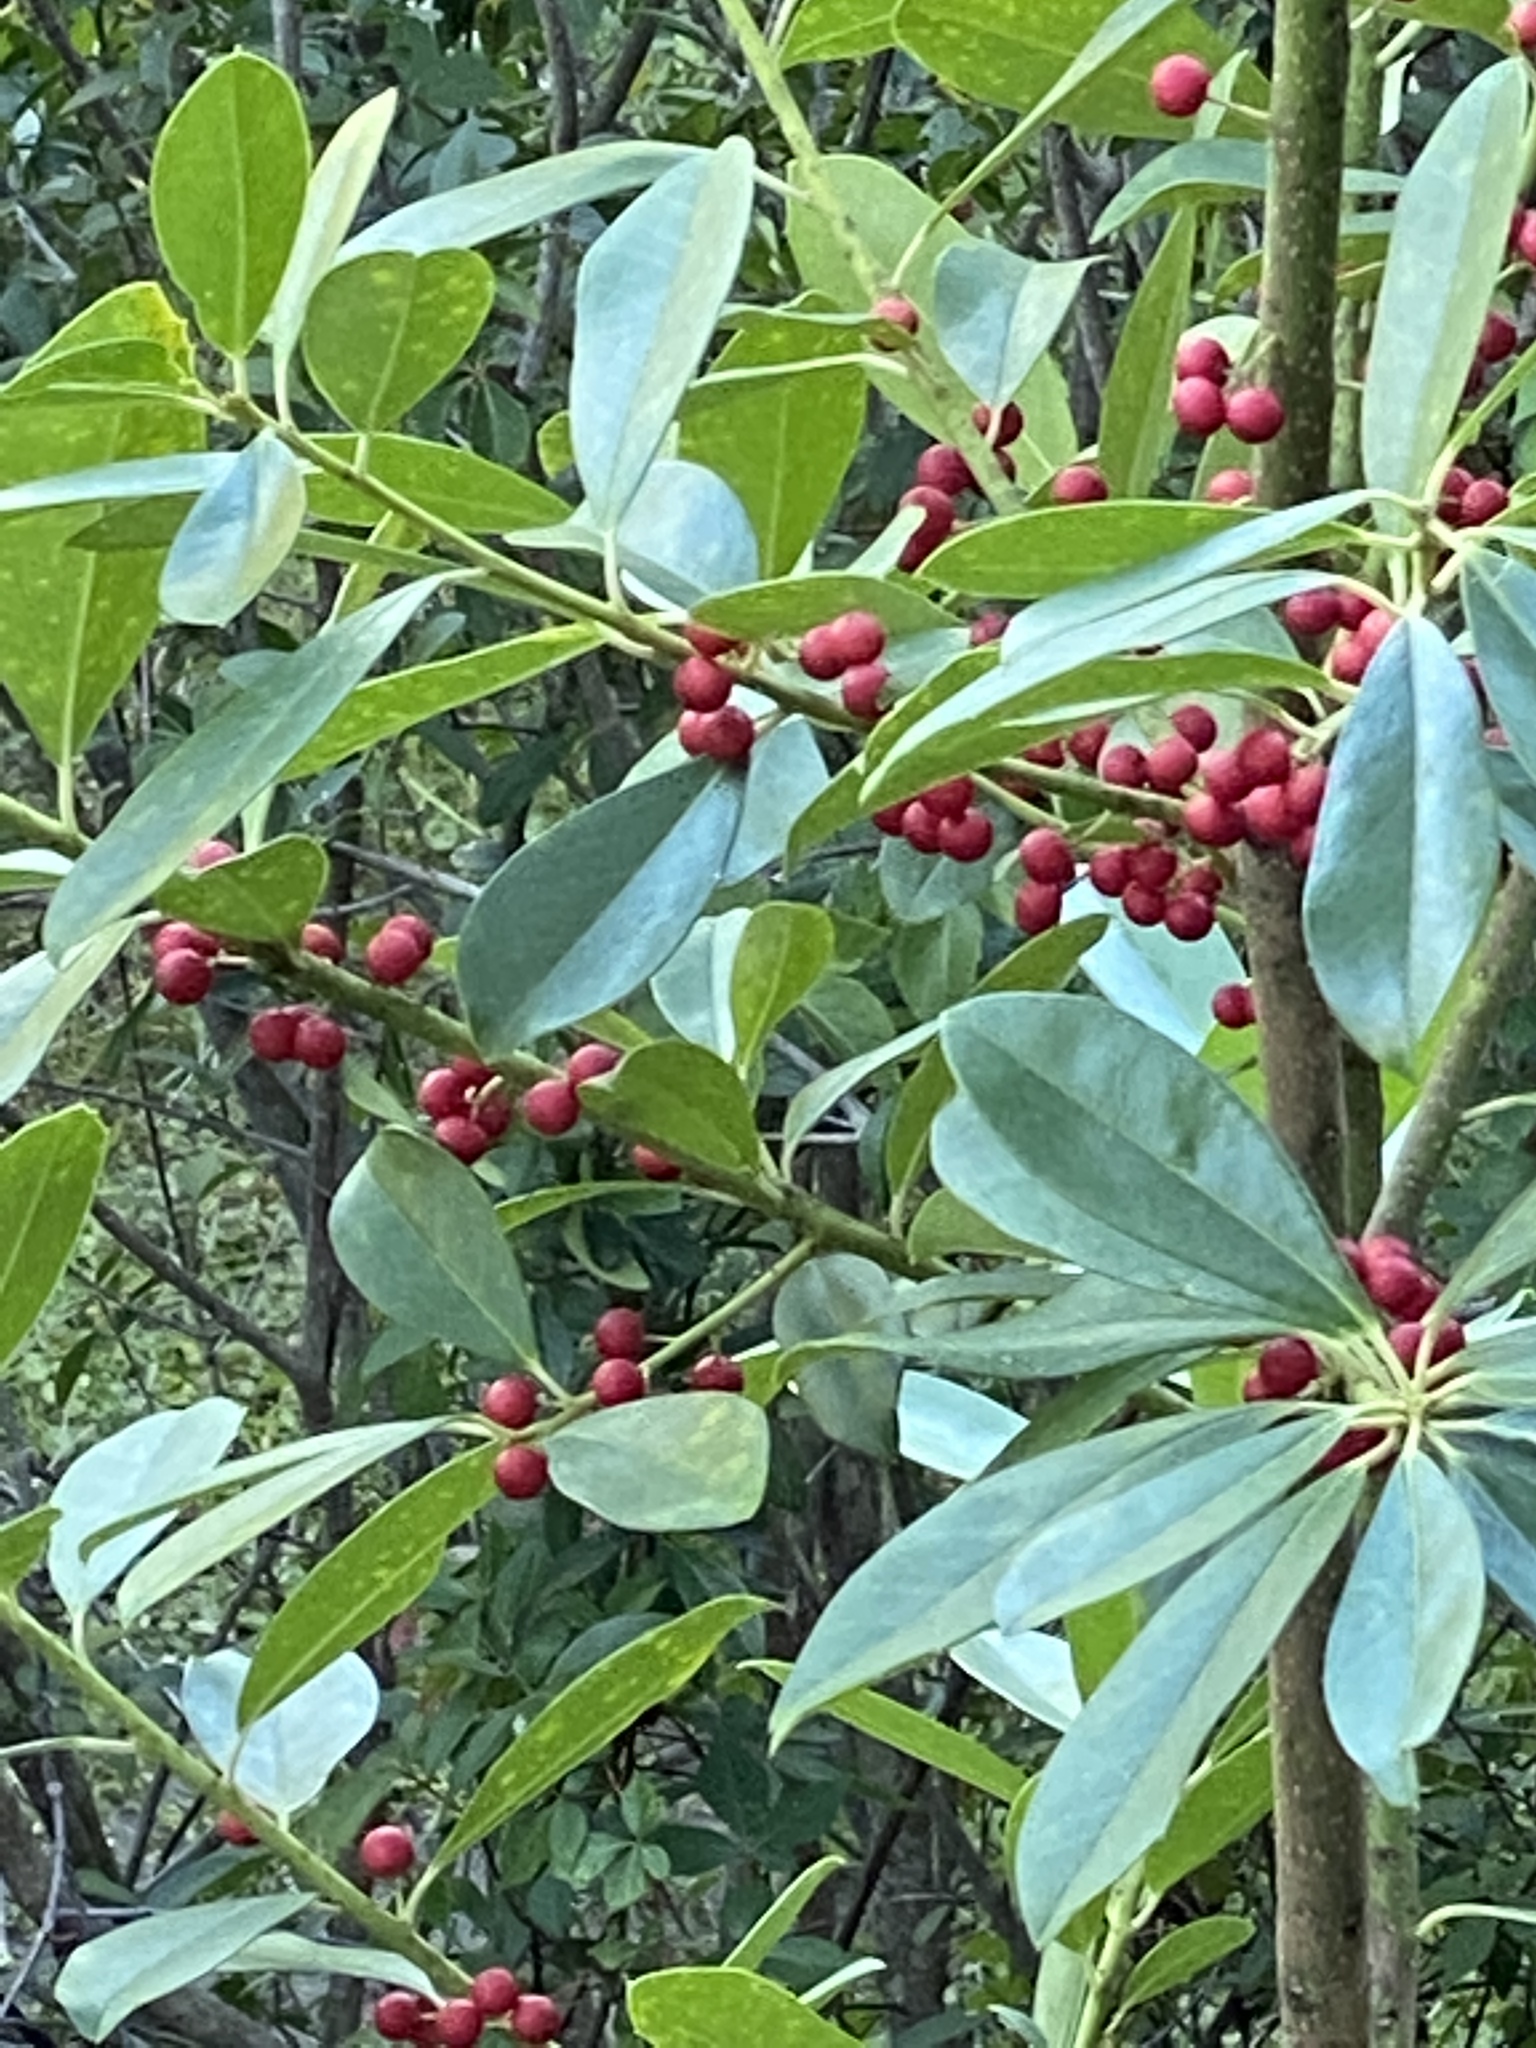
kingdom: Plantae
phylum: Tracheophyta
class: Magnoliopsida
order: Aquifoliales
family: Aquifoliaceae
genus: Ilex
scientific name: Ilex cassine
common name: Dahoon
